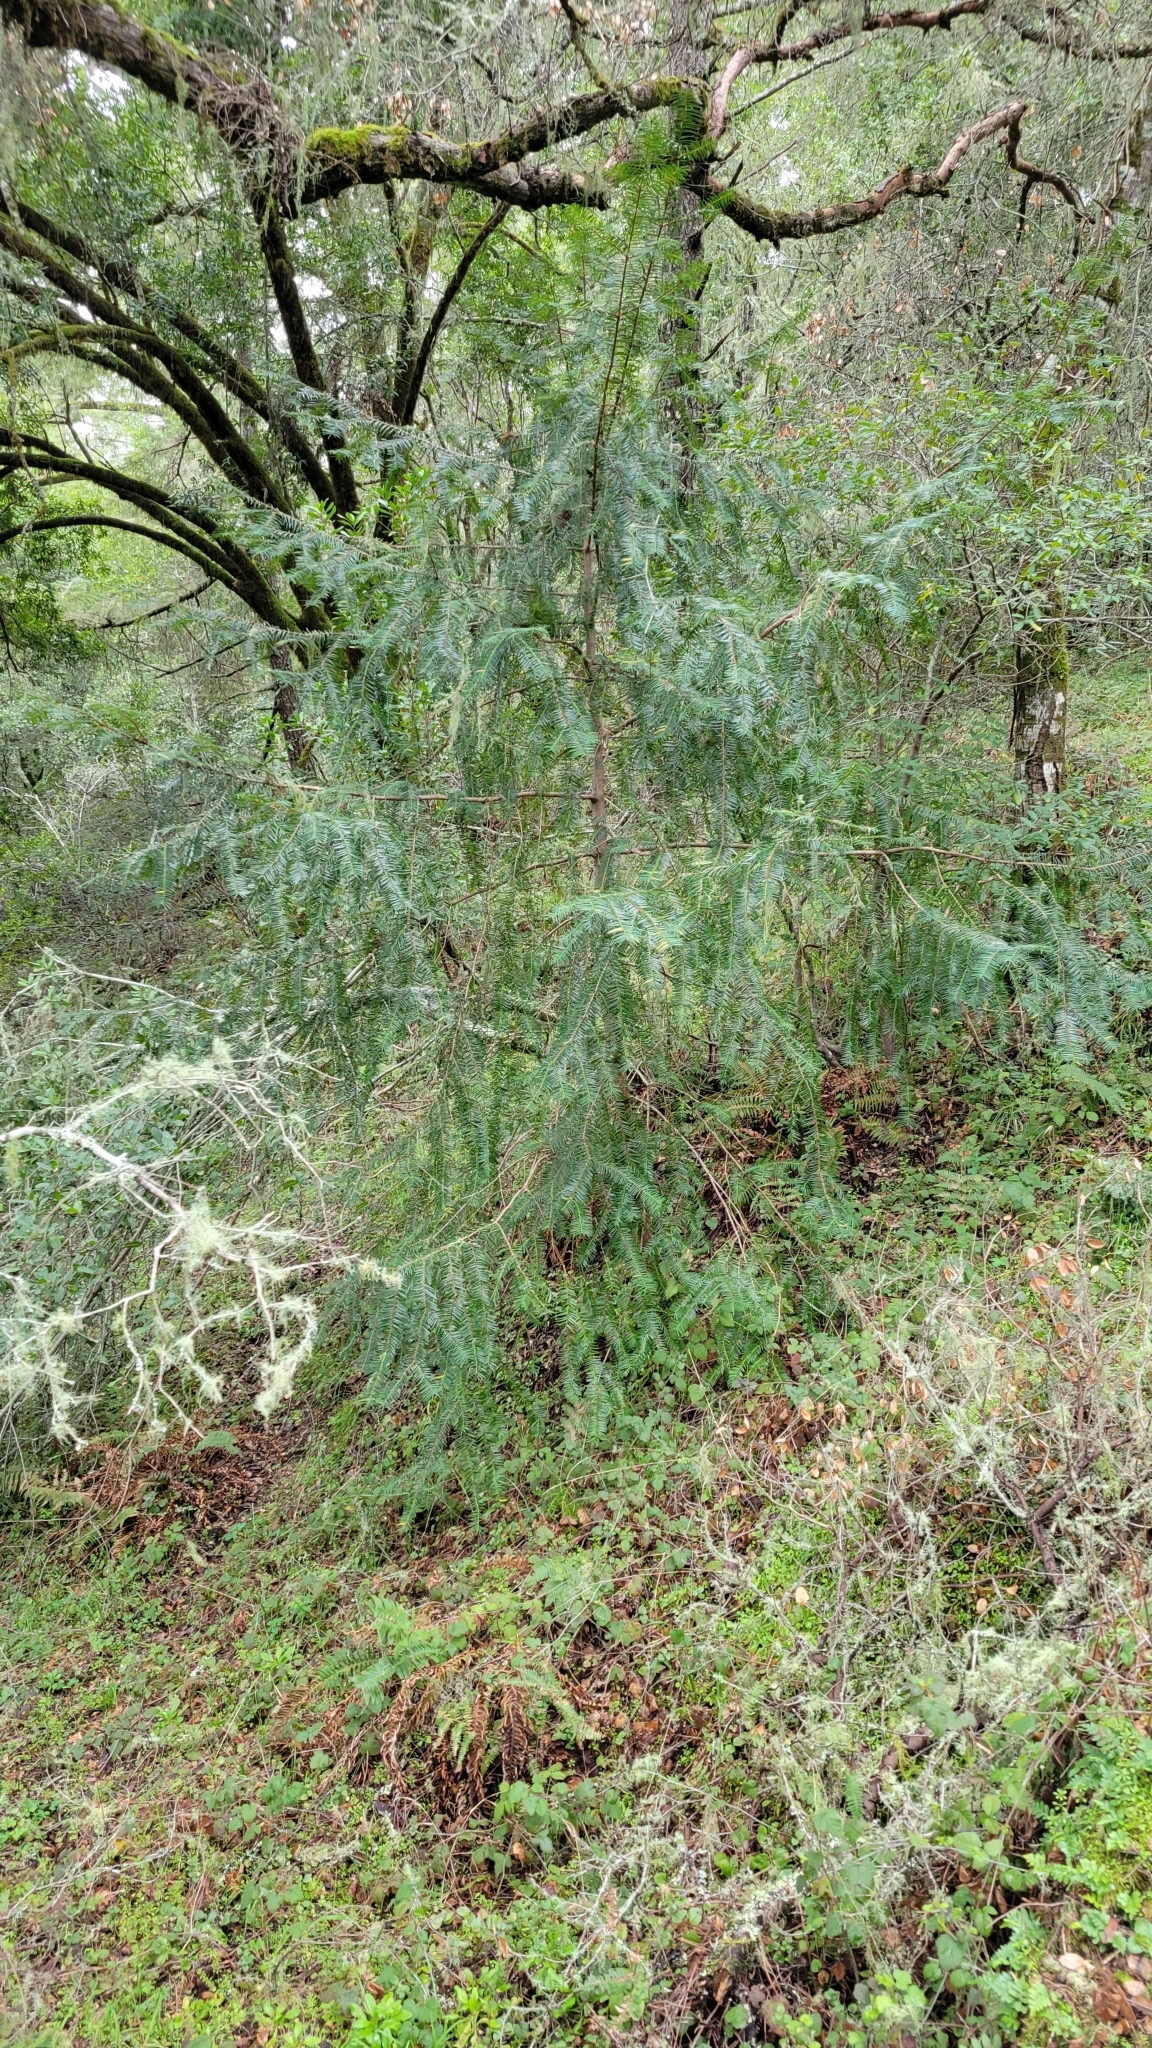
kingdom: Plantae
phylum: Tracheophyta
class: Pinopsida
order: Pinales
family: Taxaceae
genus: Torreya
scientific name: Torreya californica
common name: California torreya
